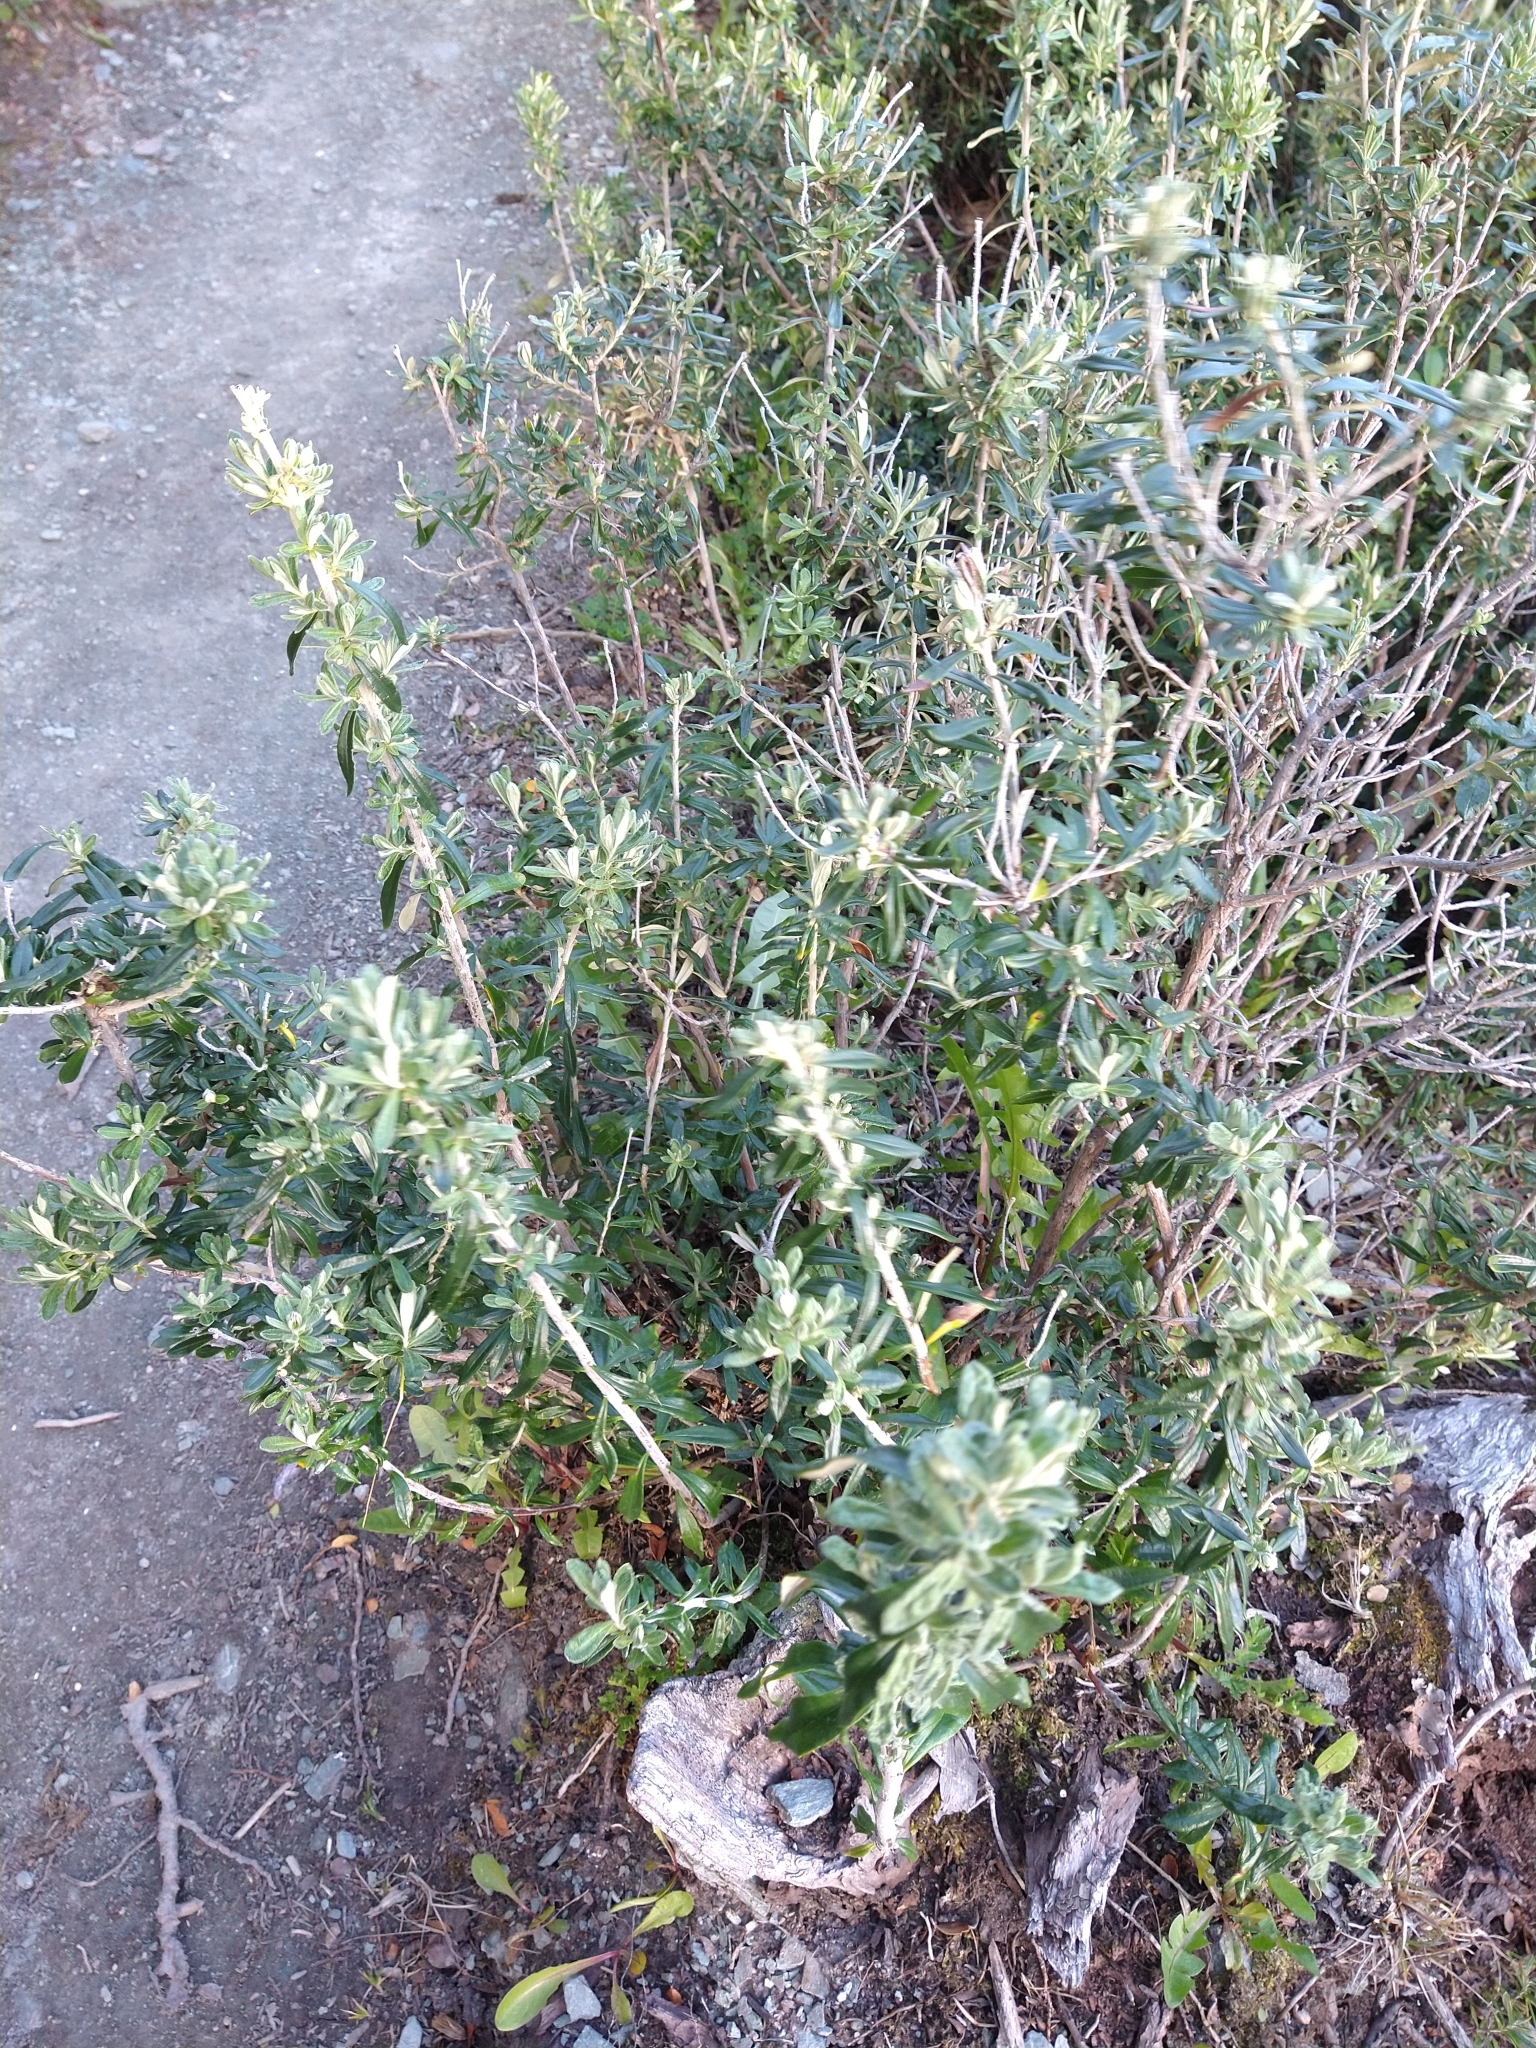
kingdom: Plantae
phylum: Tracheophyta
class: Magnoliopsida
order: Asterales
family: Asteraceae
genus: Chiliotrichum
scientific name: Chiliotrichum diffusum
